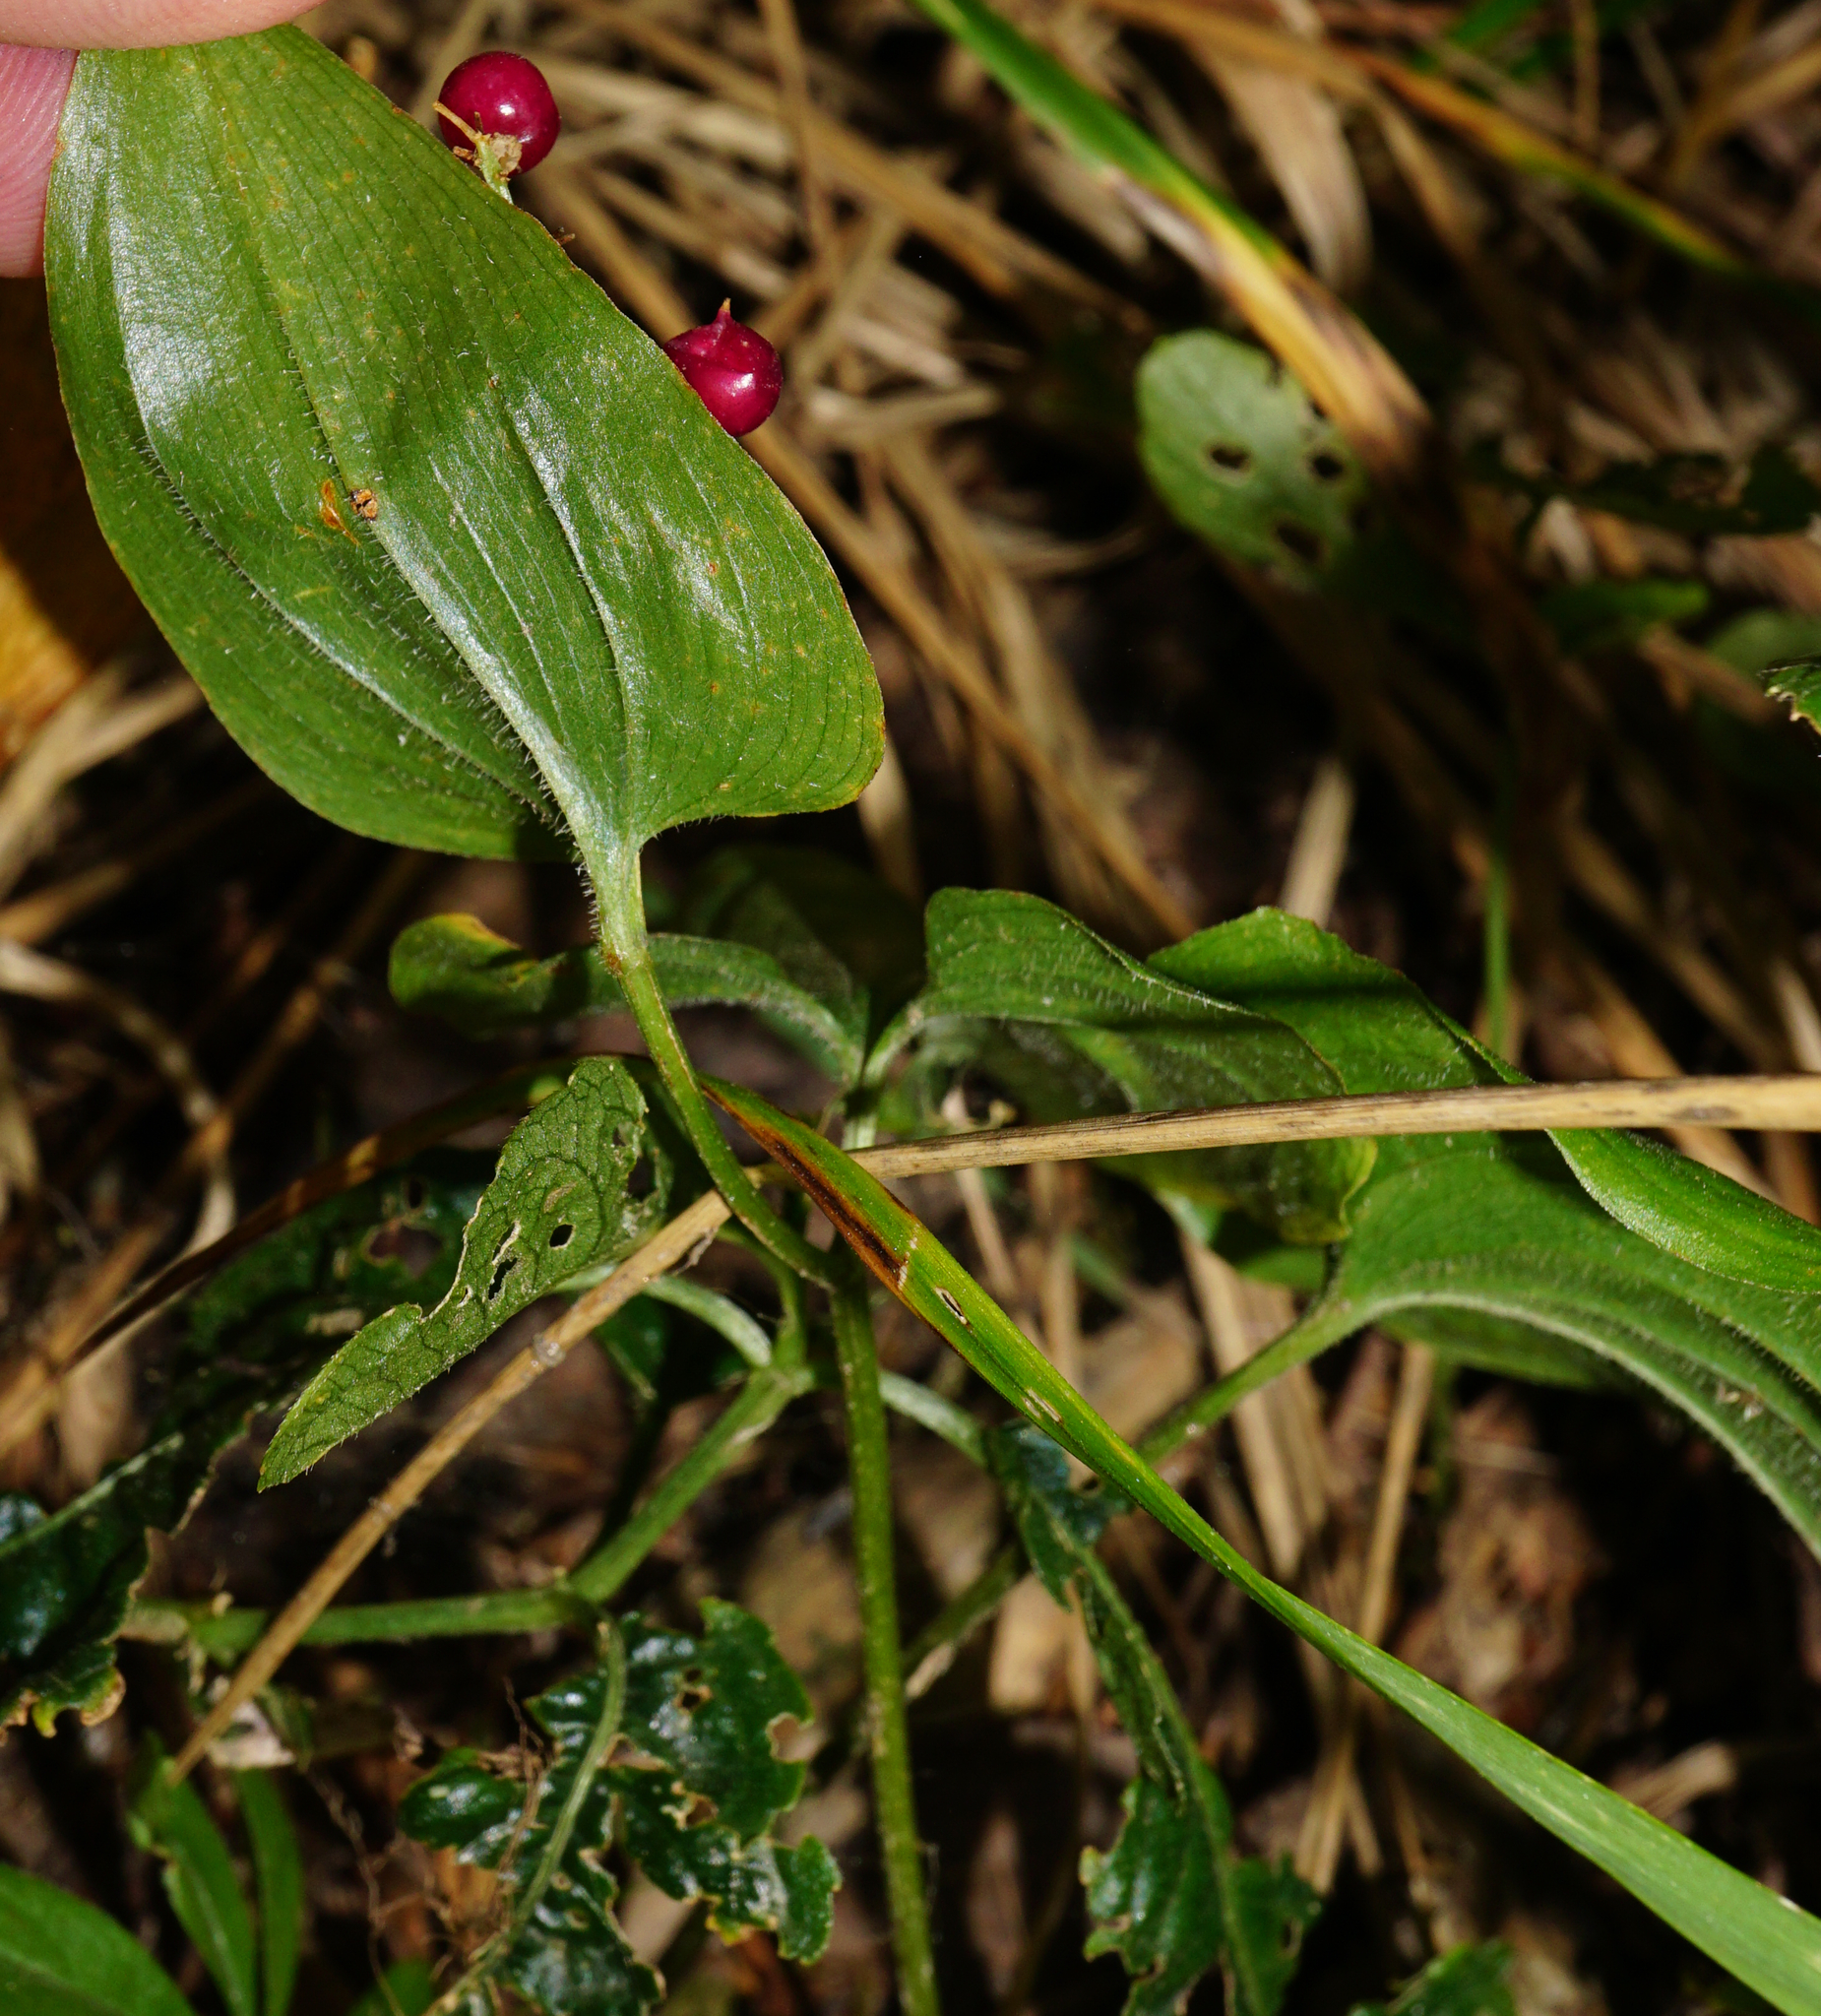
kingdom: Plantae
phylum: Tracheophyta
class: Liliopsida
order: Asparagales
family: Asparagaceae
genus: Maianthemum
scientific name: Maianthemum bifolium
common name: May lily
